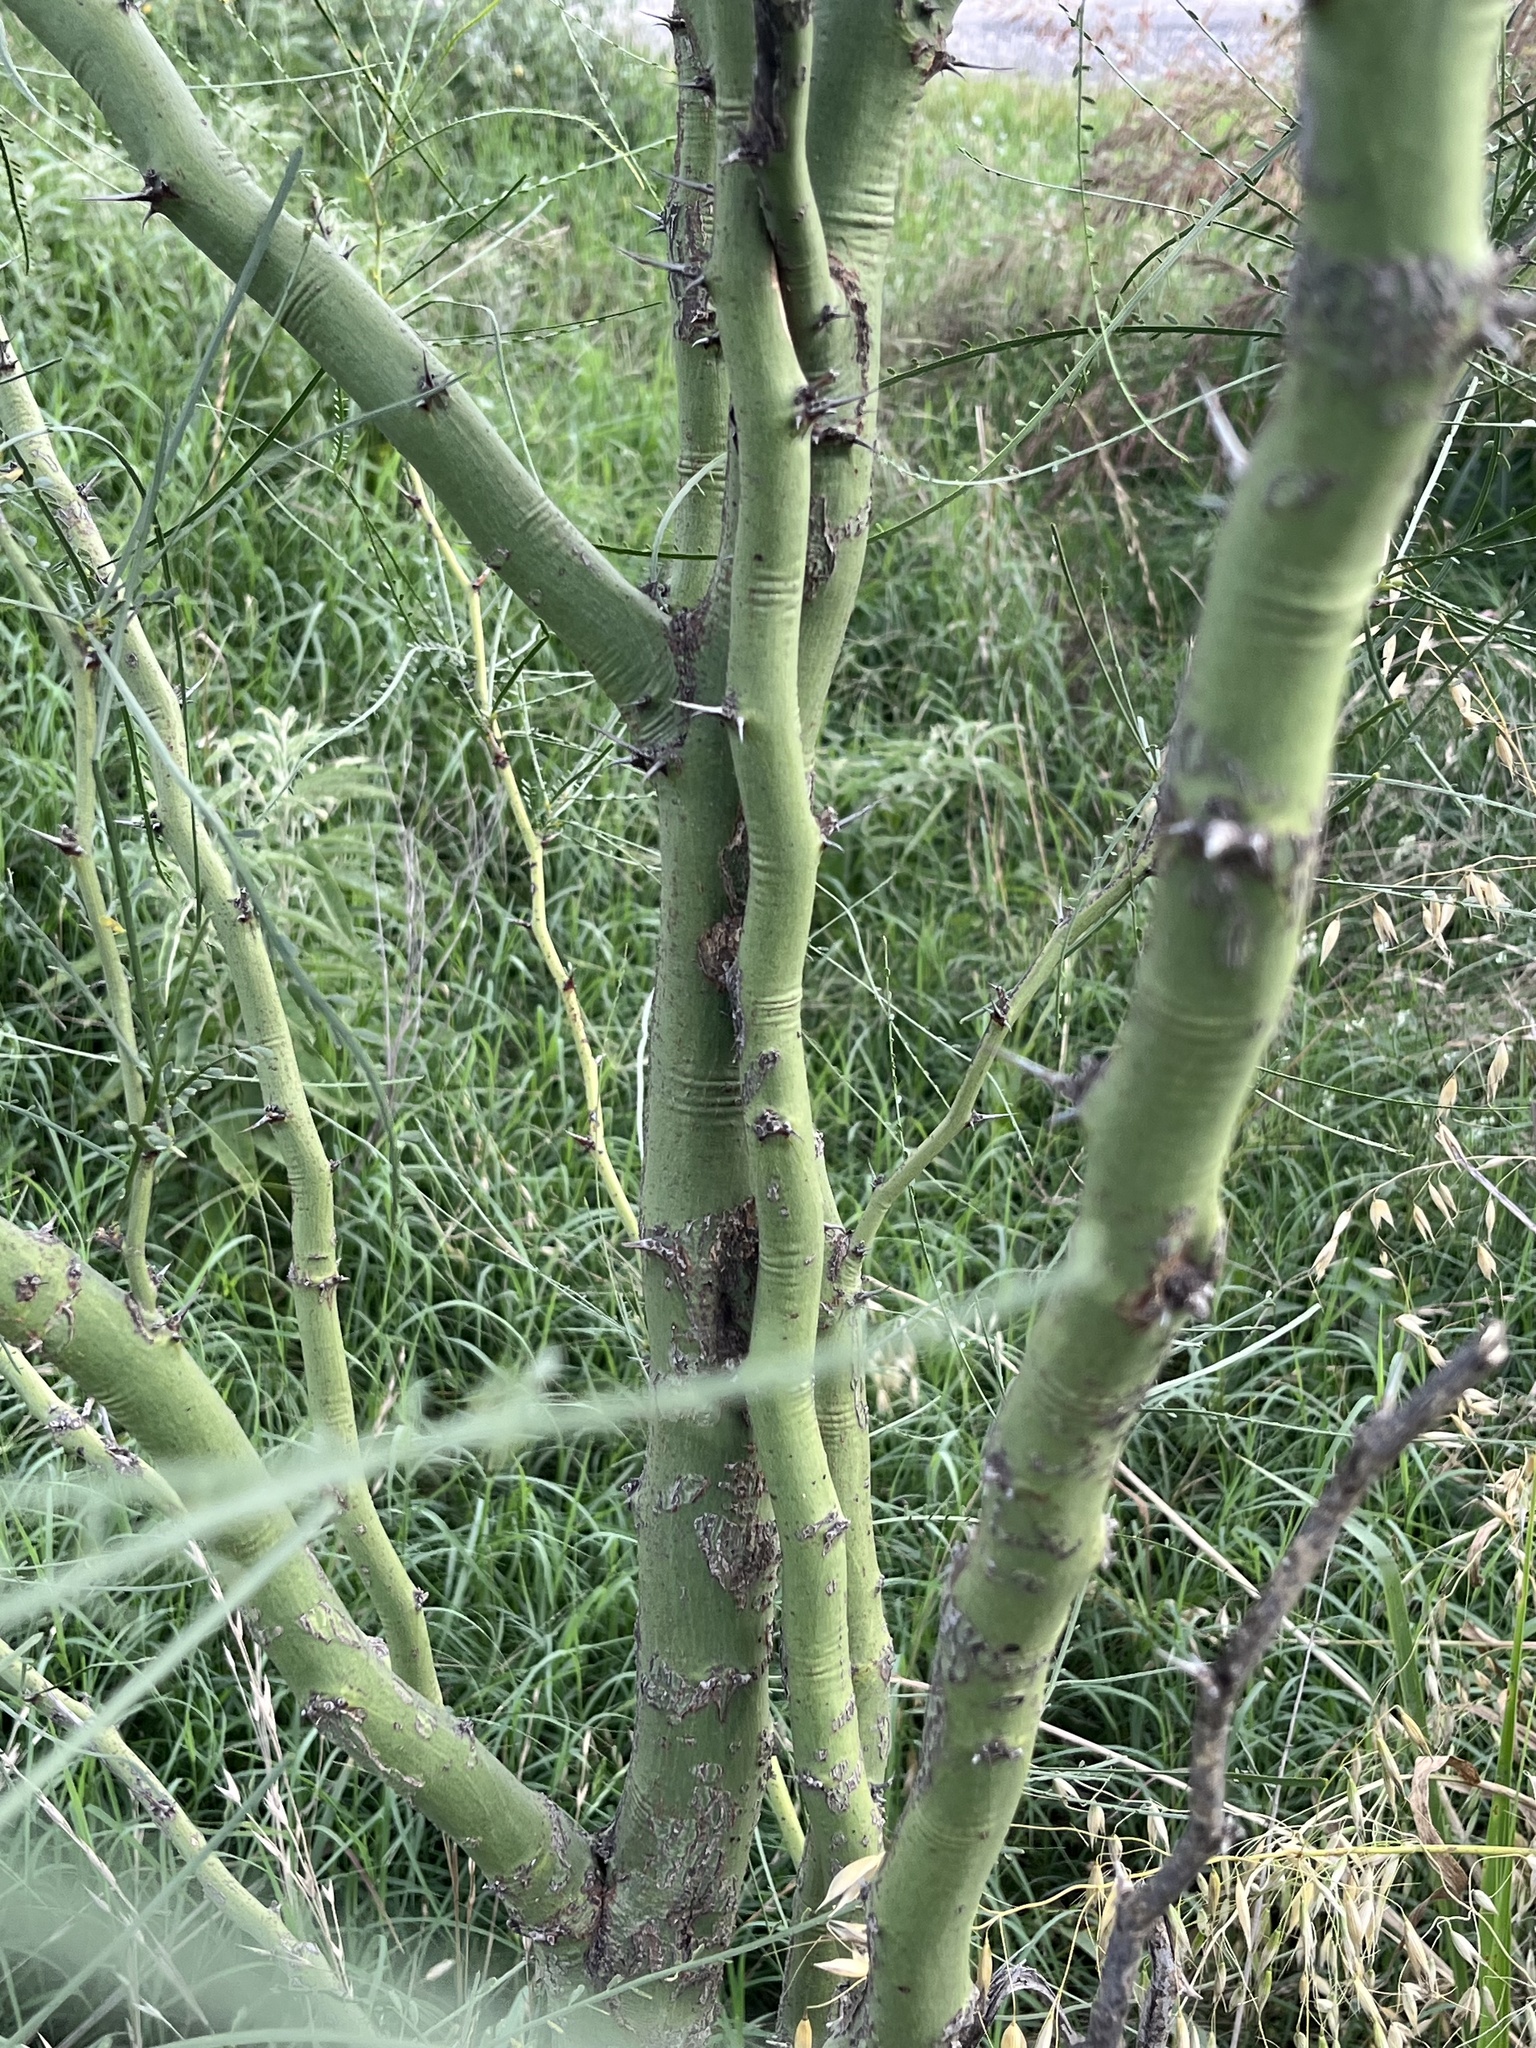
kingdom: Plantae
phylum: Tracheophyta
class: Magnoliopsida
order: Fabales
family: Fabaceae
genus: Parkinsonia
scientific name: Parkinsonia aculeata
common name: Jerusalem thorn
